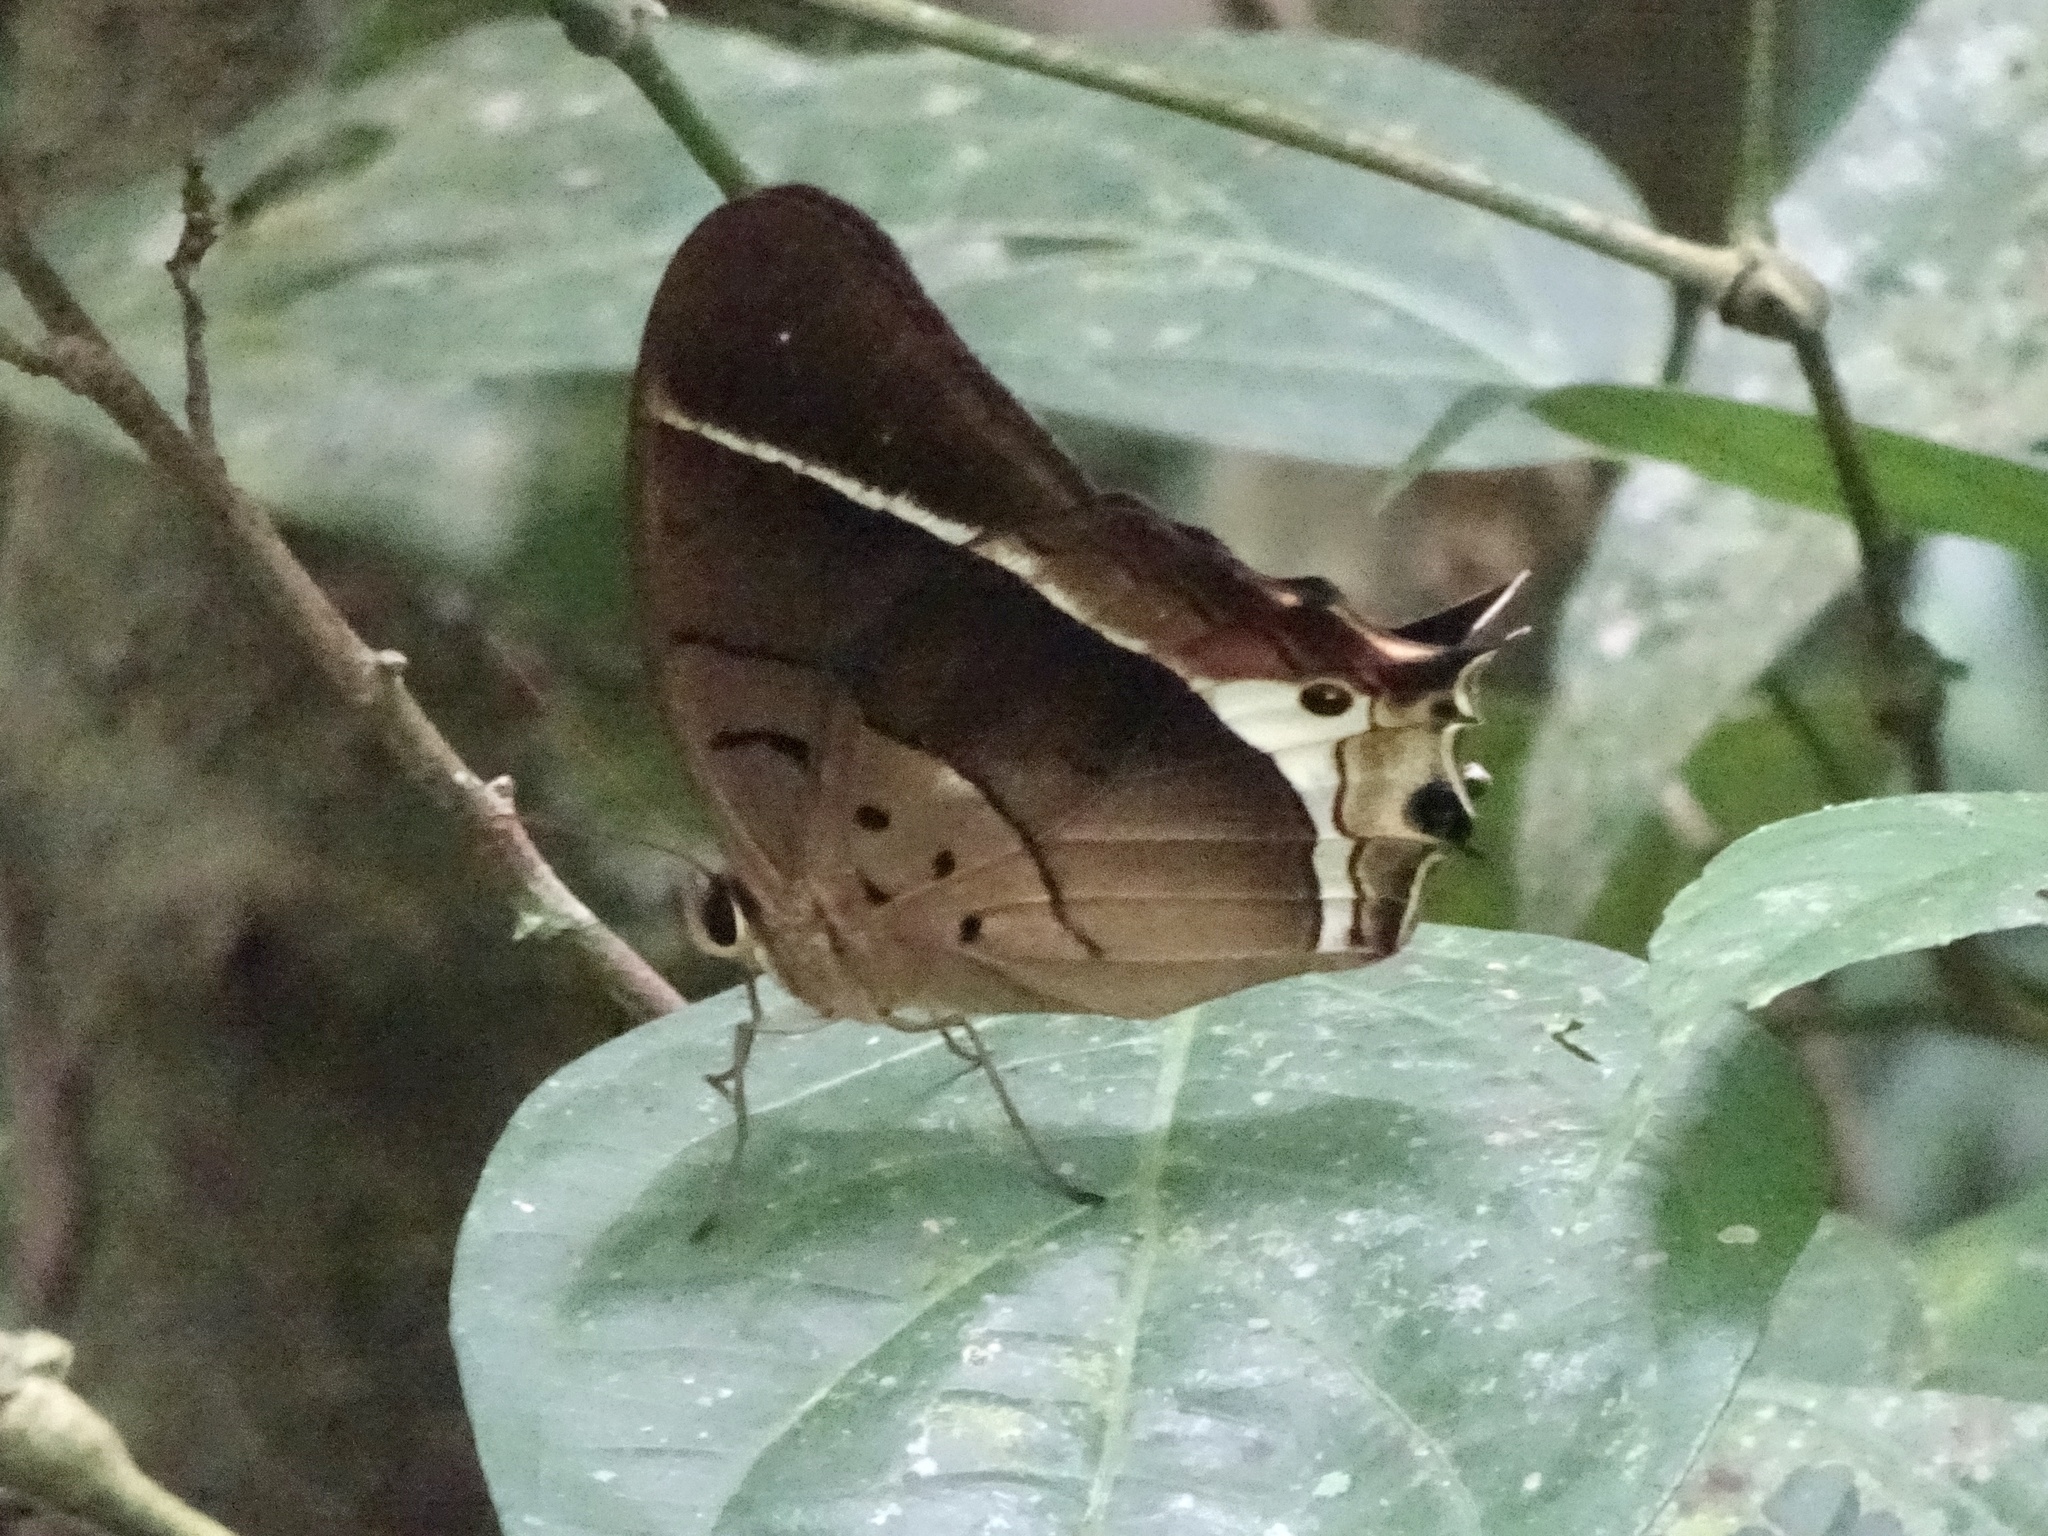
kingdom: Animalia
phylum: Arthropoda
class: Insecta
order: Lepidoptera
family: Nymphalidae
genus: Antirrhea
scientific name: Antirrhea philaretes
